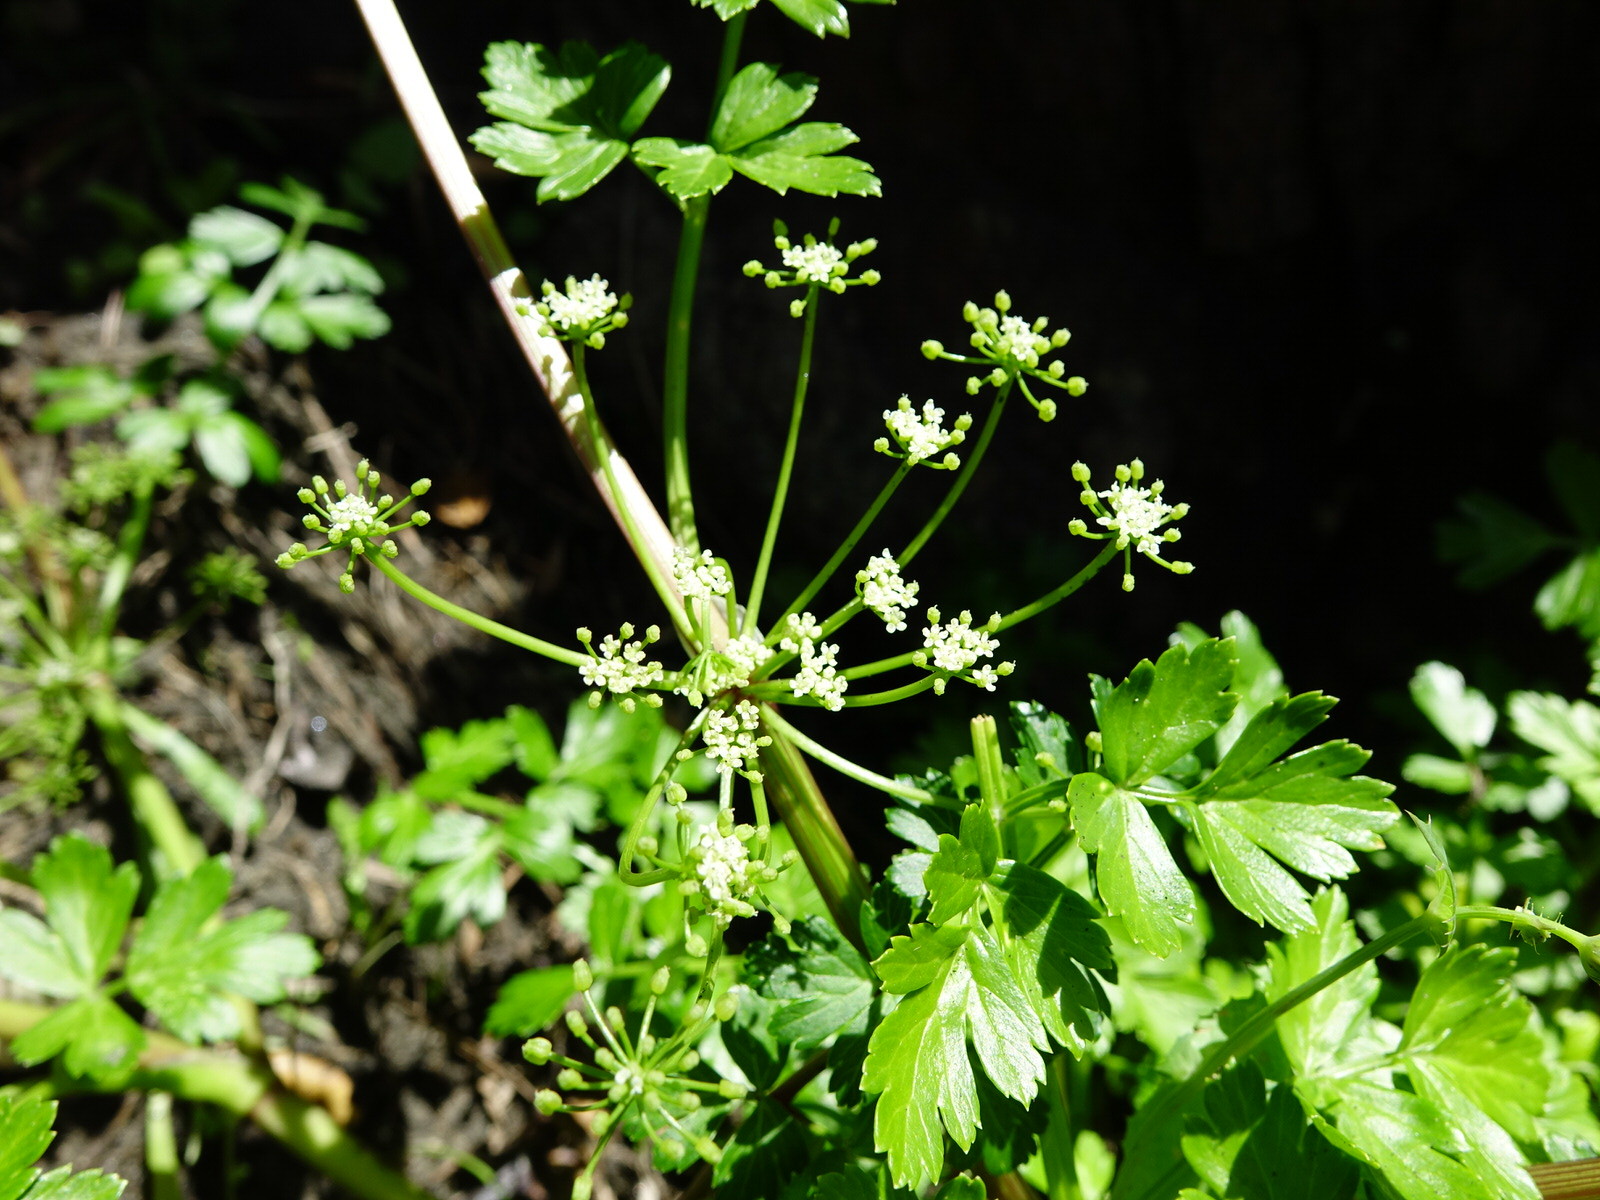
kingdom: Plantae
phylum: Tracheophyta
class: Magnoliopsida
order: Apiales
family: Apiaceae
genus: Apium
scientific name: Apium prostratum
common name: Prostrate marshwort
